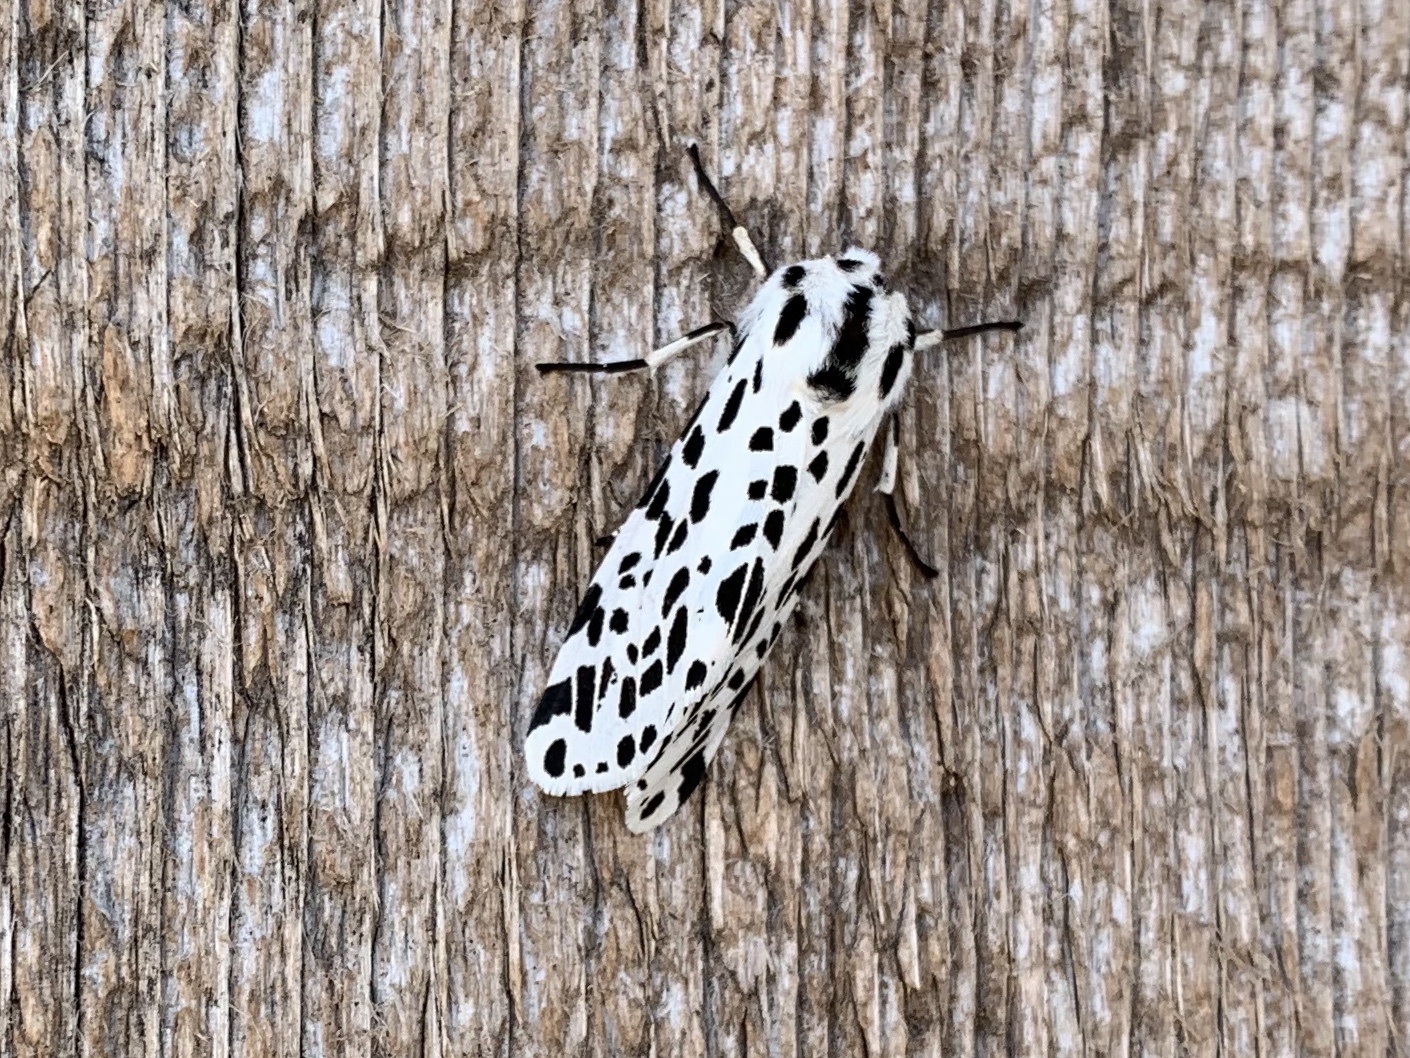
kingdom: Animalia
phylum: Arthropoda
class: Insecta
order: Lepidoptera
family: Erebidae
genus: Hypercompe
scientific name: Hypercompe permaculata
